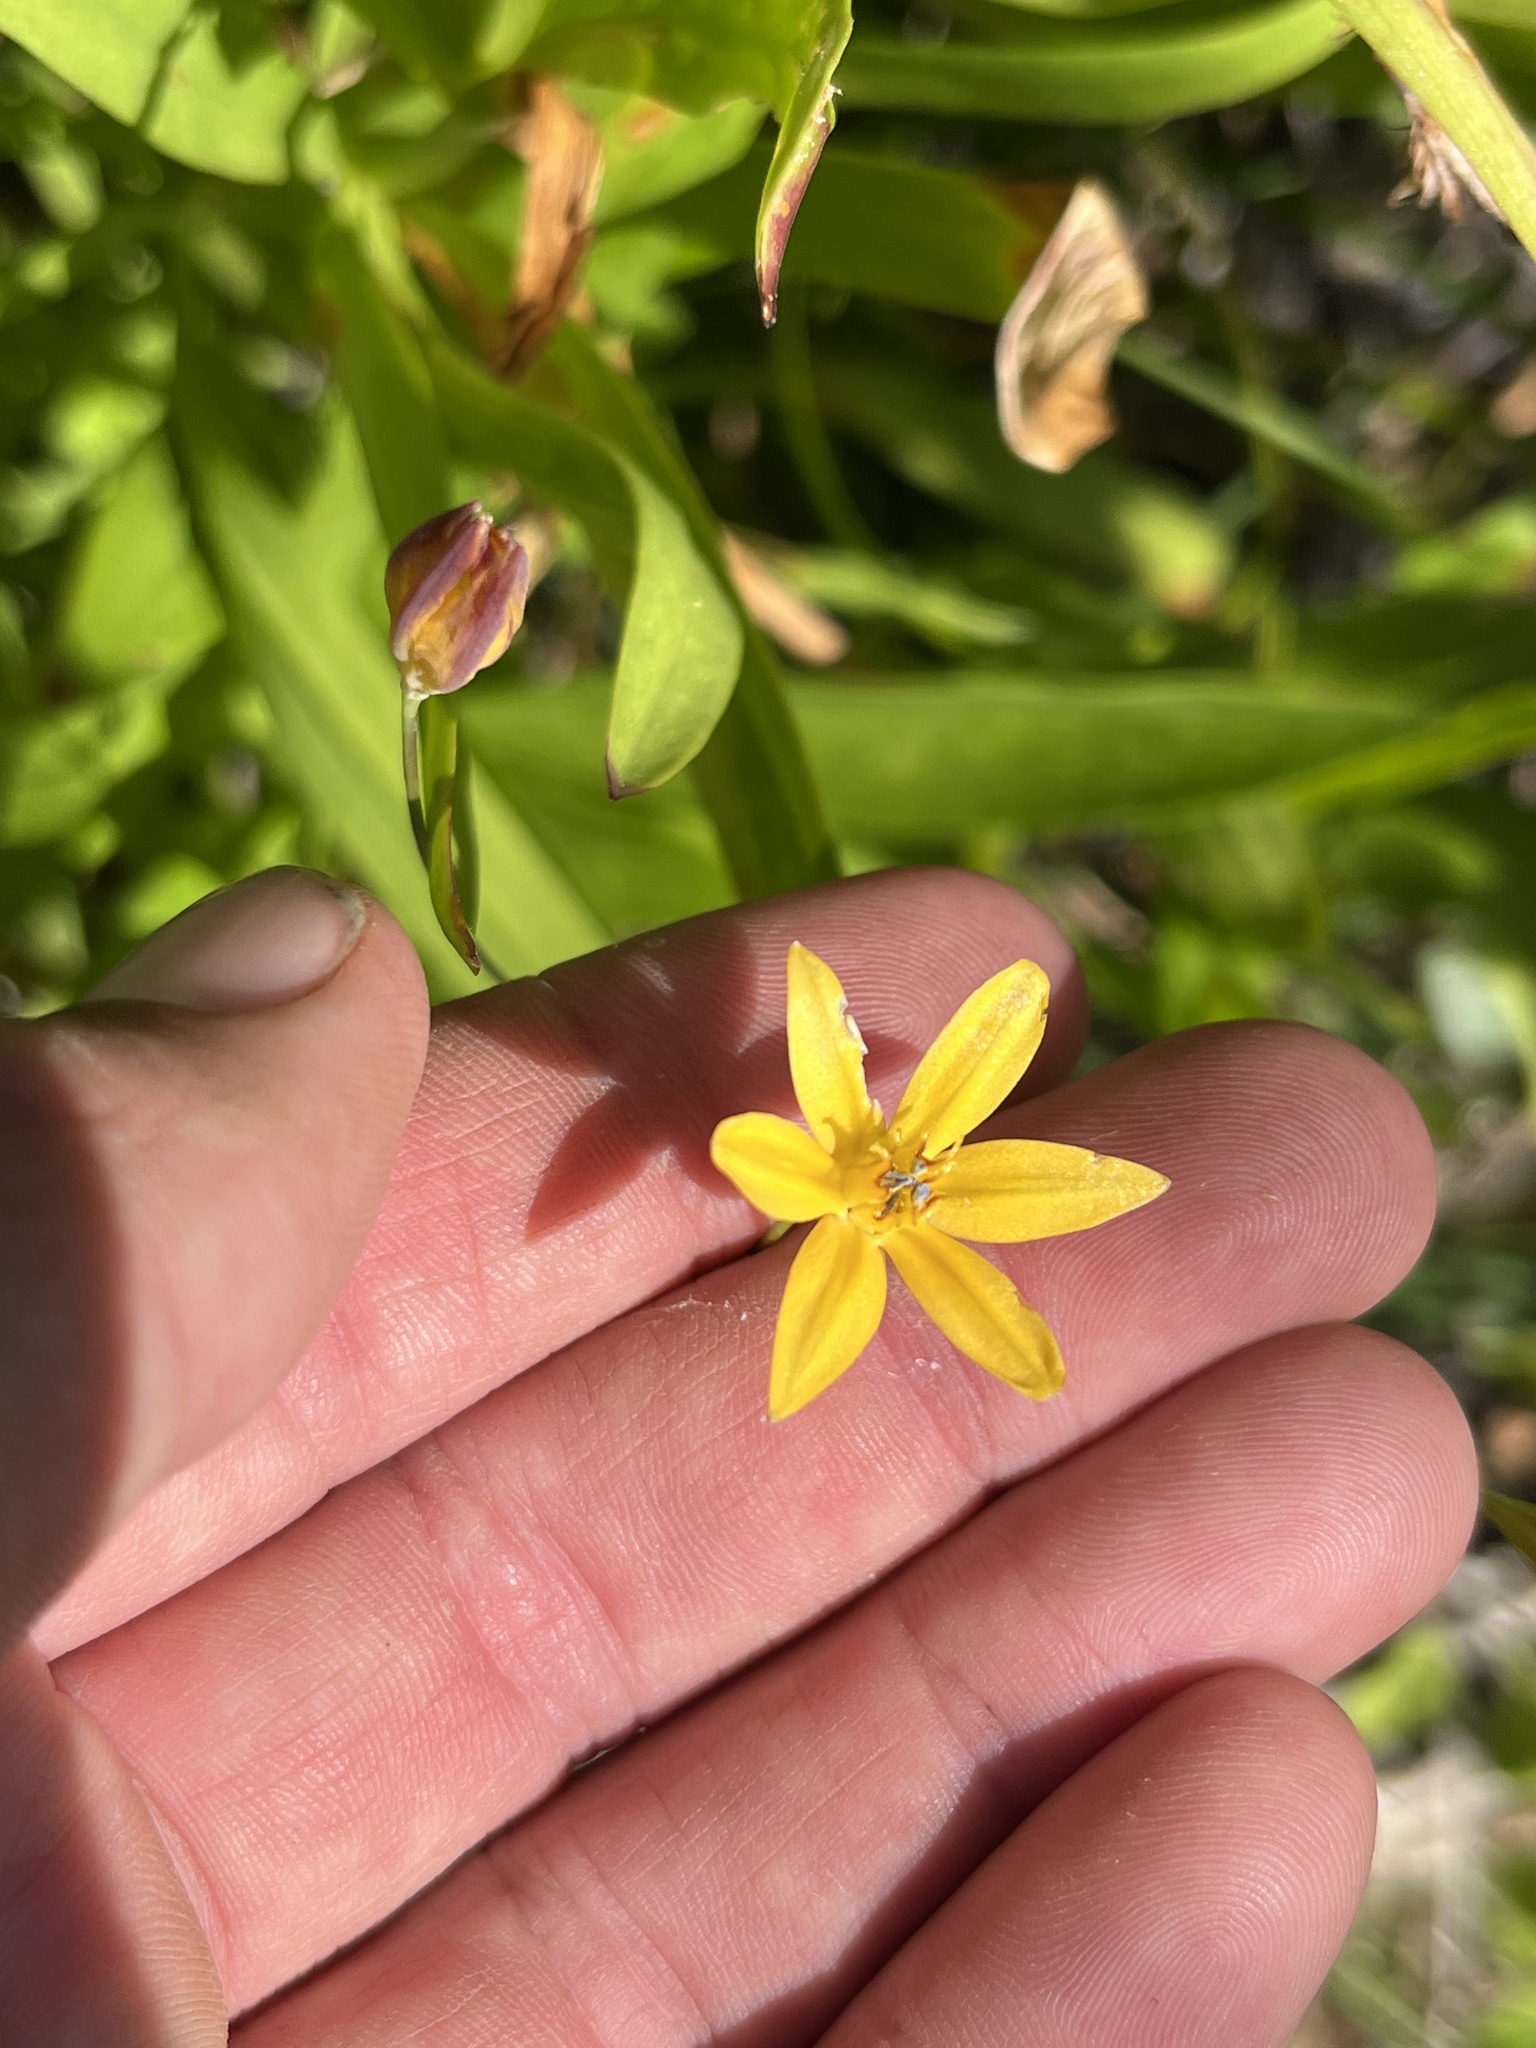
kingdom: Plantae
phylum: Tracheophyta
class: Liliopsida
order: Asparagales
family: Asparagaceae
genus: Triteleia
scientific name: Triteleia ixioides
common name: Yellow-brodiaea
